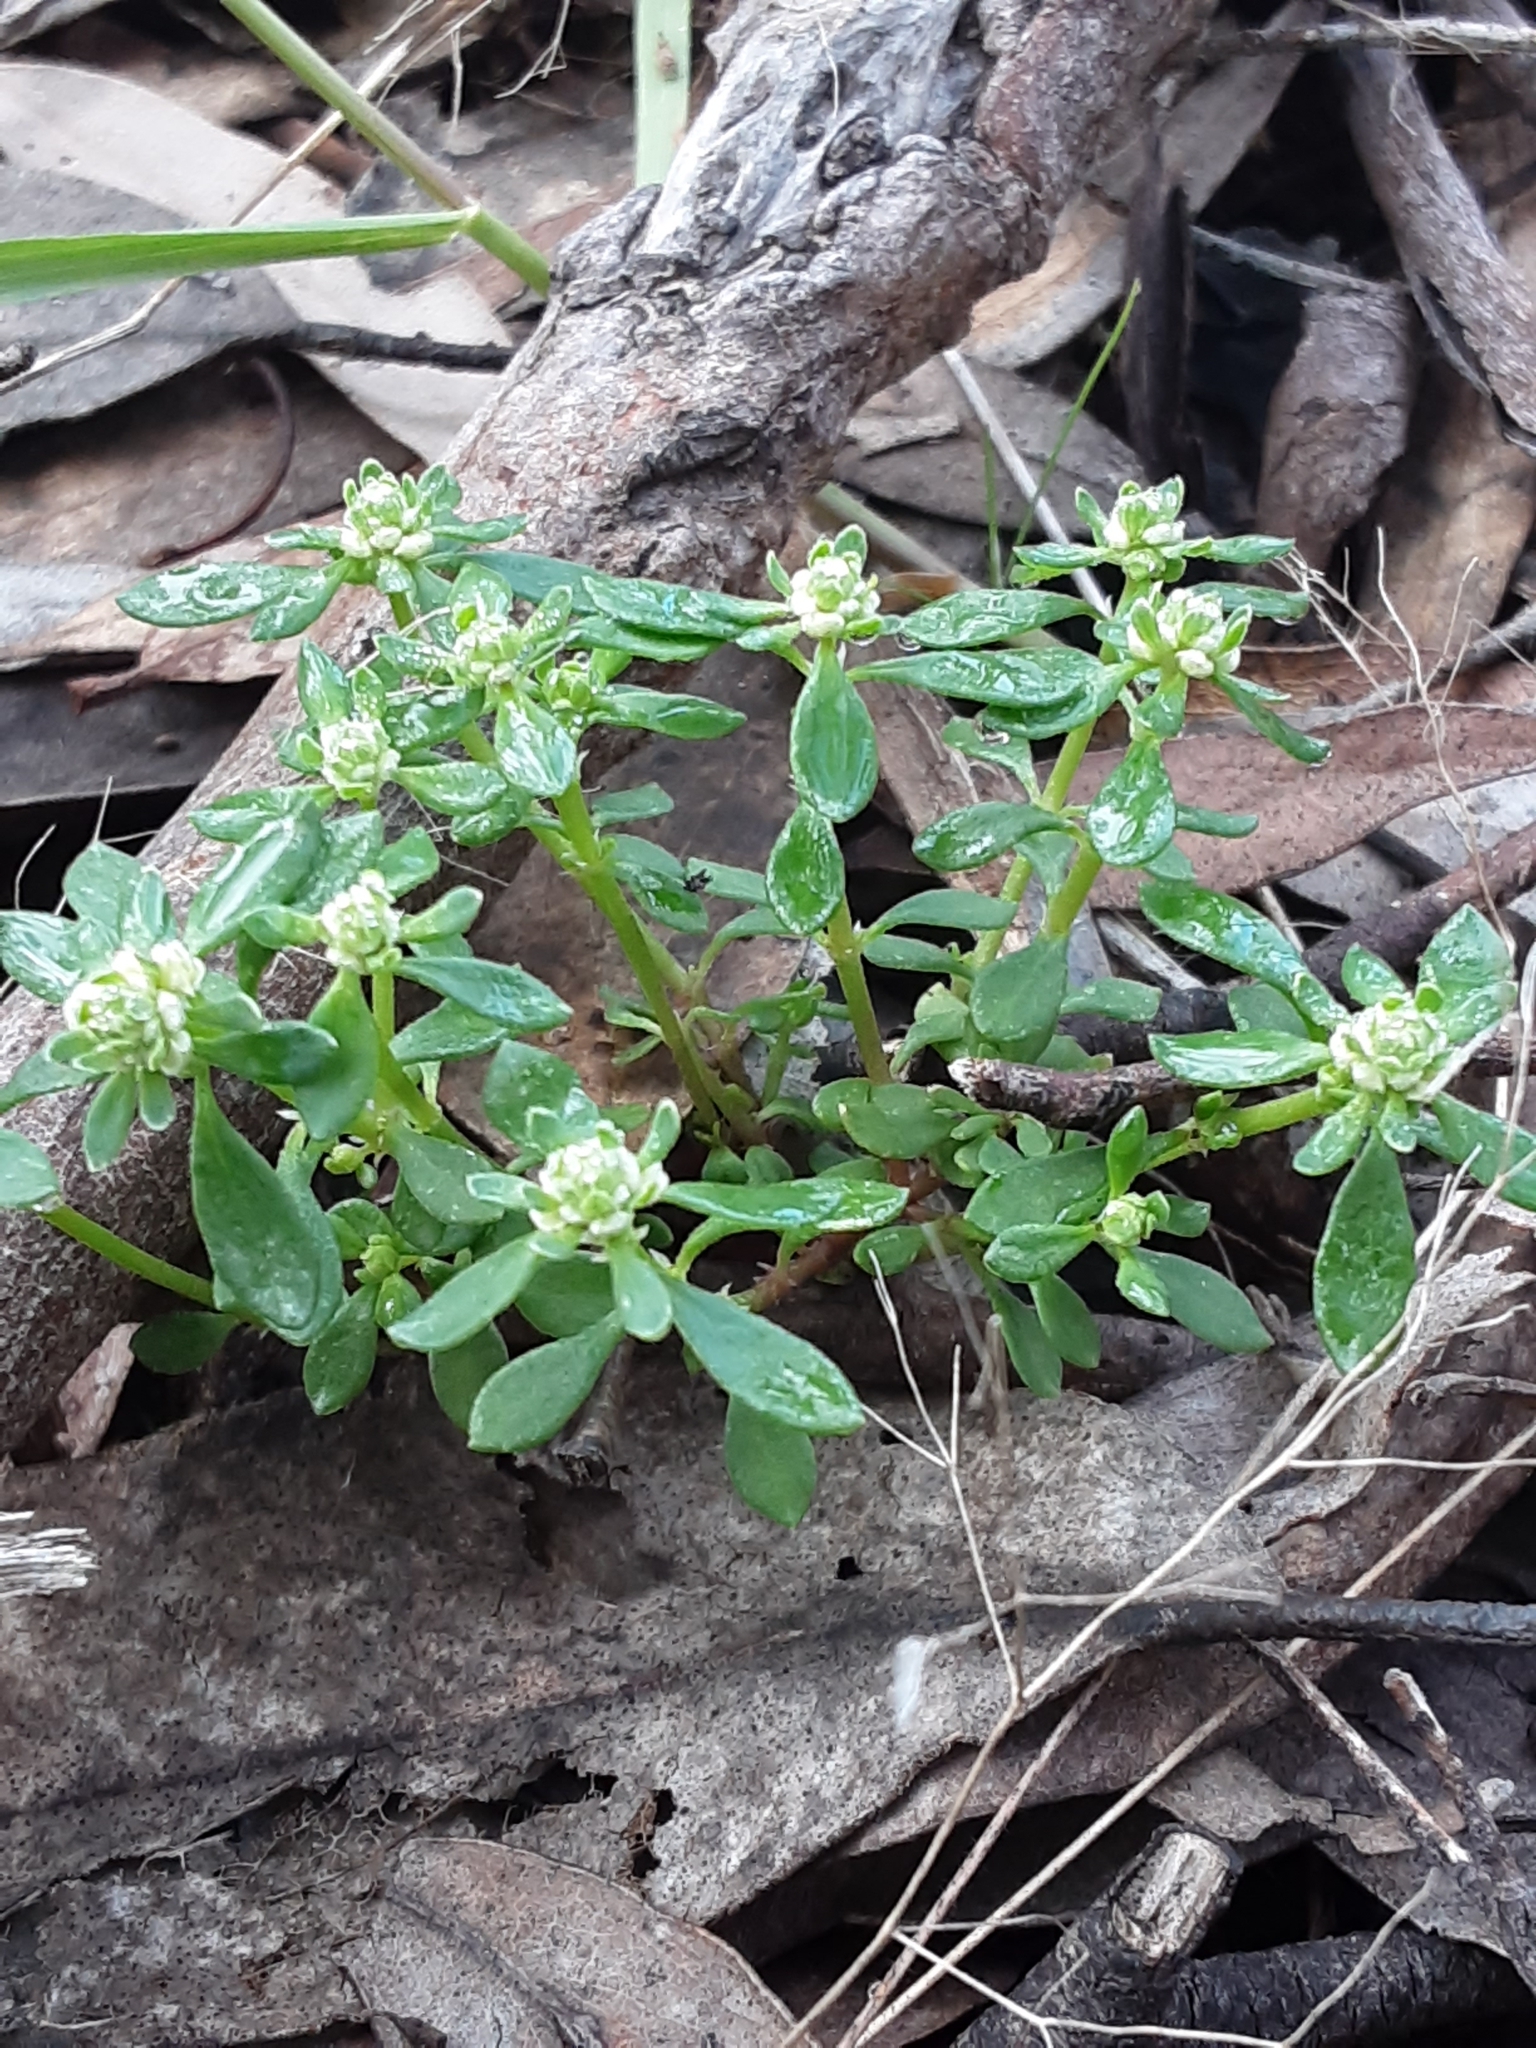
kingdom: Plantae
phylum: Tracheophyta
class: Magnoliopsida
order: Malpighiales
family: Phyllanthaceae
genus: Poranthera
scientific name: Poranthera microphylla
